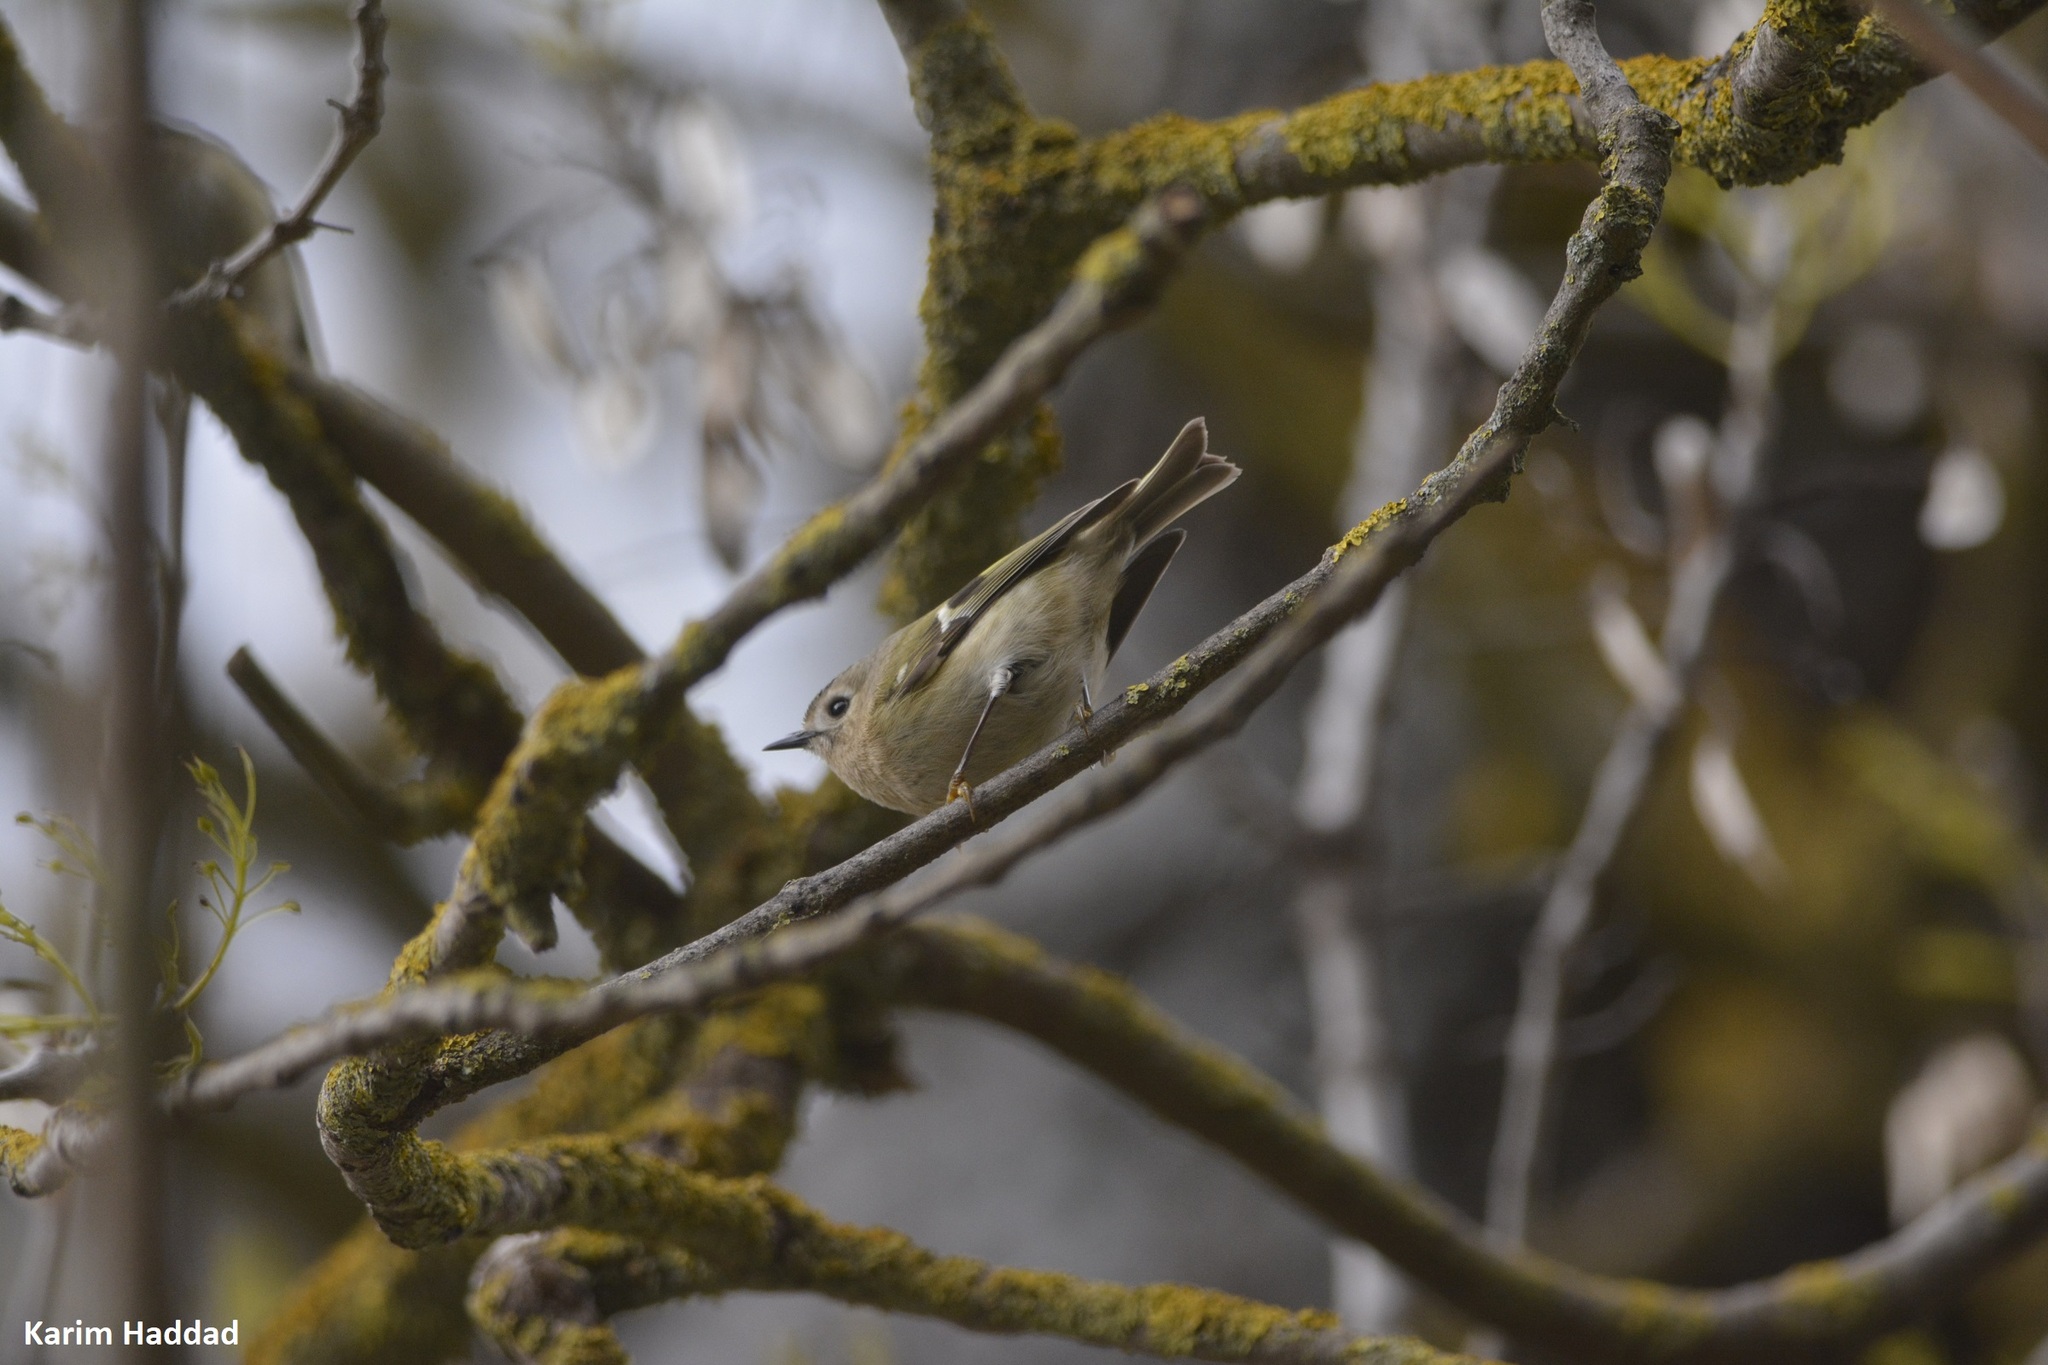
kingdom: Animalia
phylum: Chordata
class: Aves
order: Passeriformes
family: Regulidae
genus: Regulus
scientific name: Regulus regulus
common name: Goldcrest
